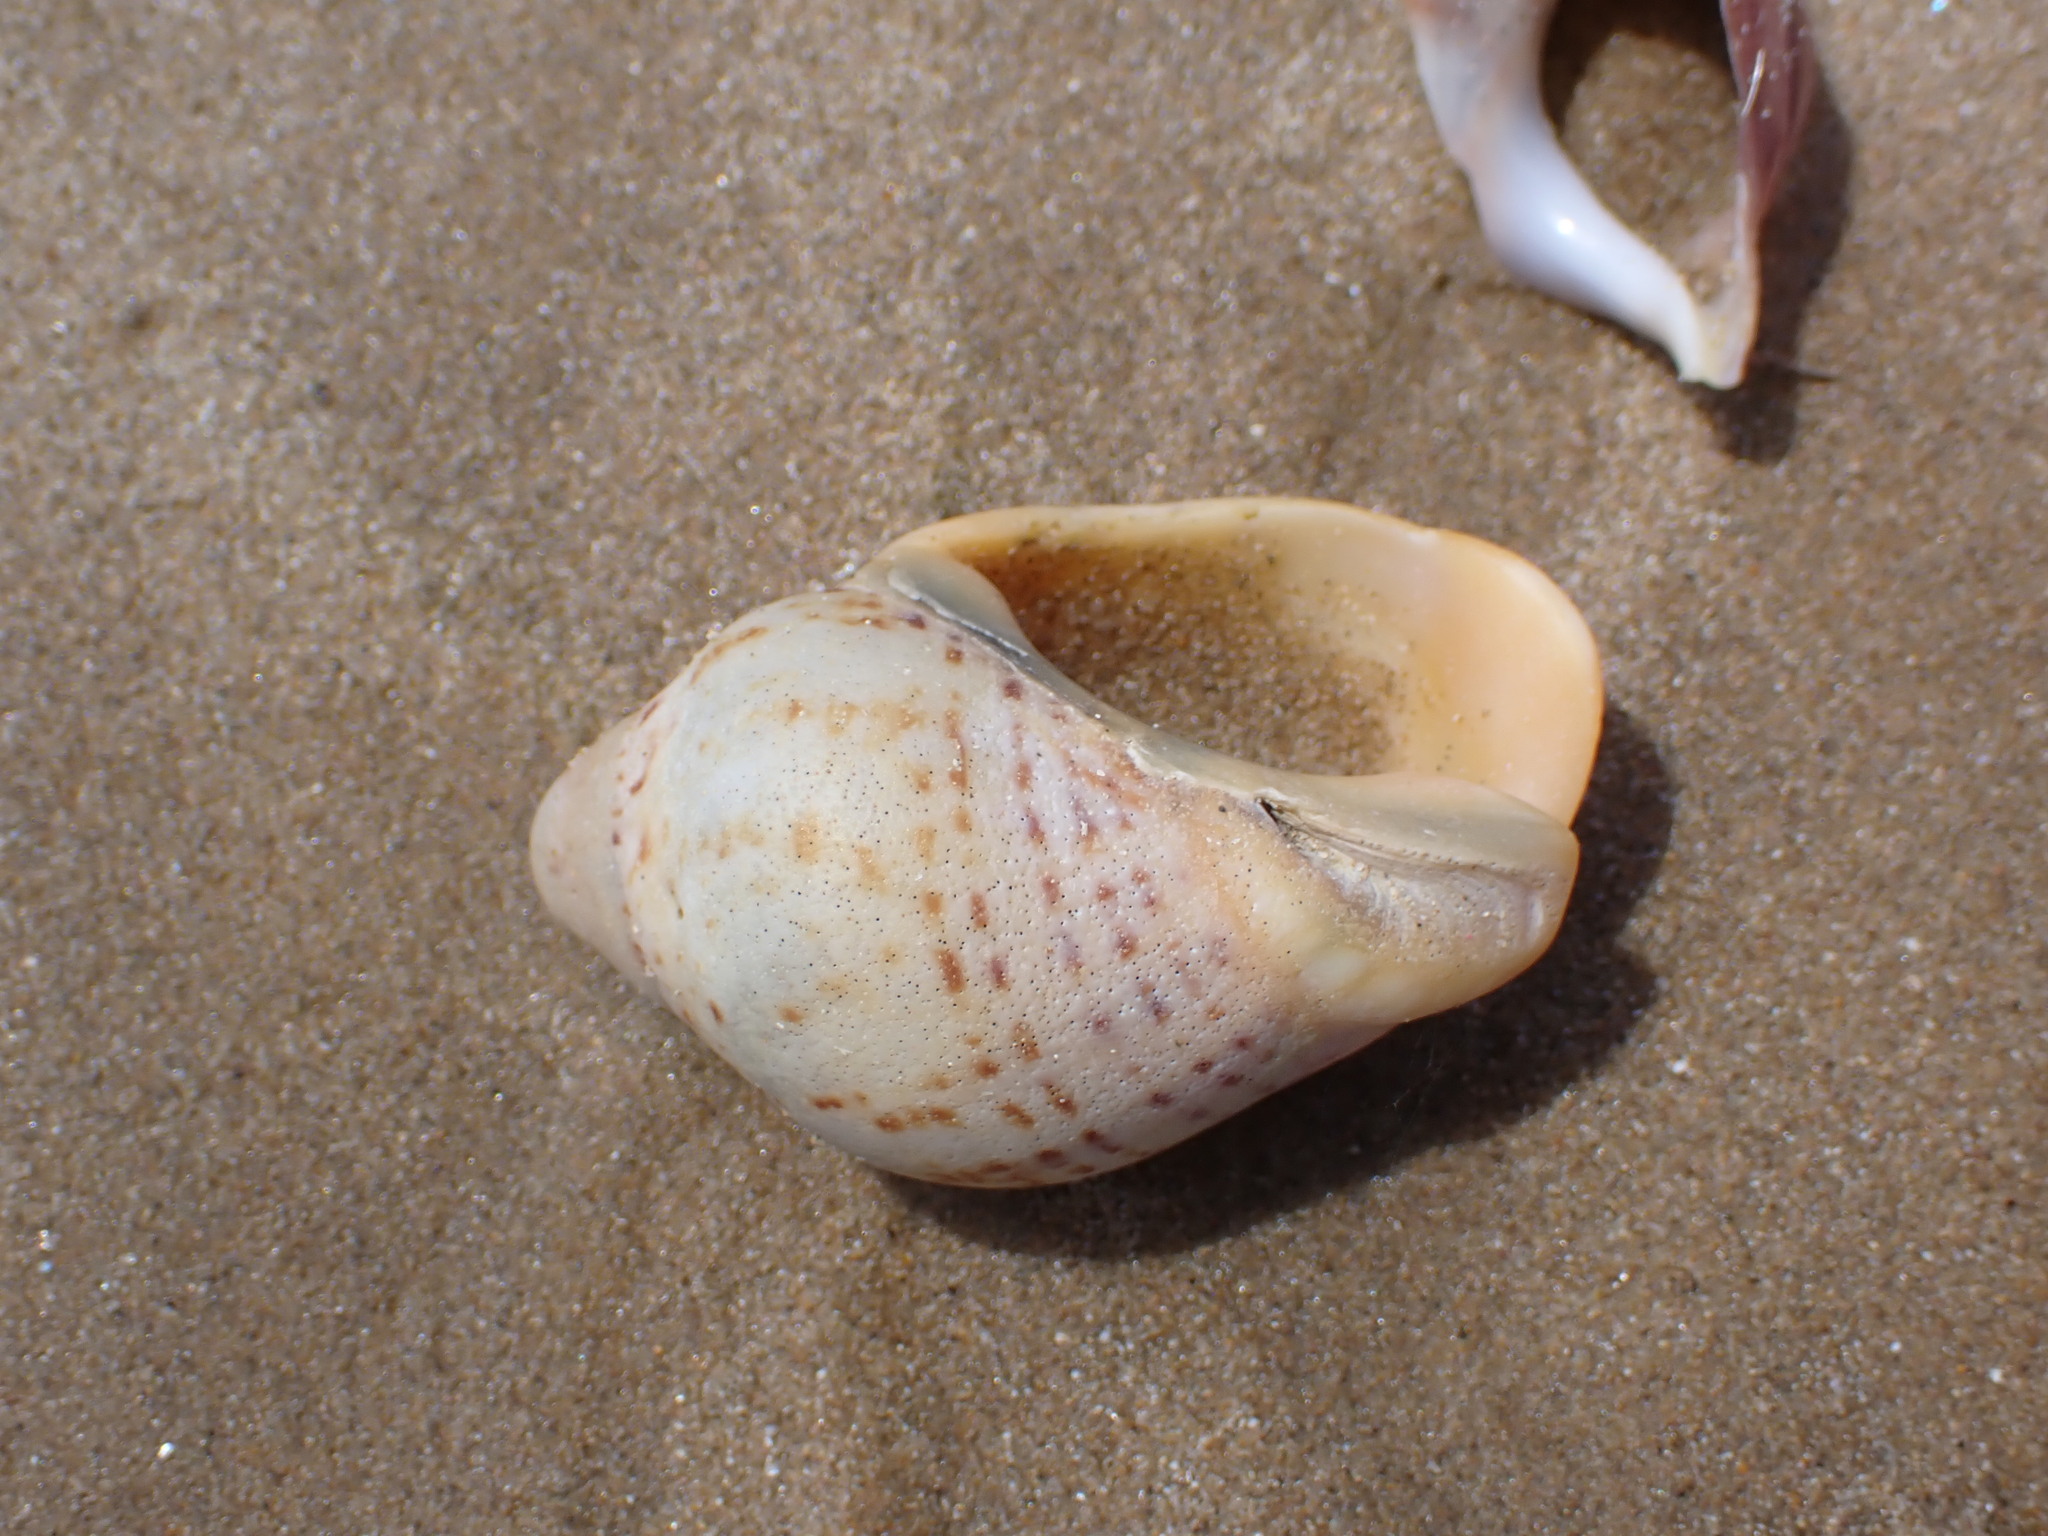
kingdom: Animalia
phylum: Mollusca
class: Gastropoda
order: Neogastropoda
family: Cominellidae
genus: Cominella
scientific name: Cominella adspersa
